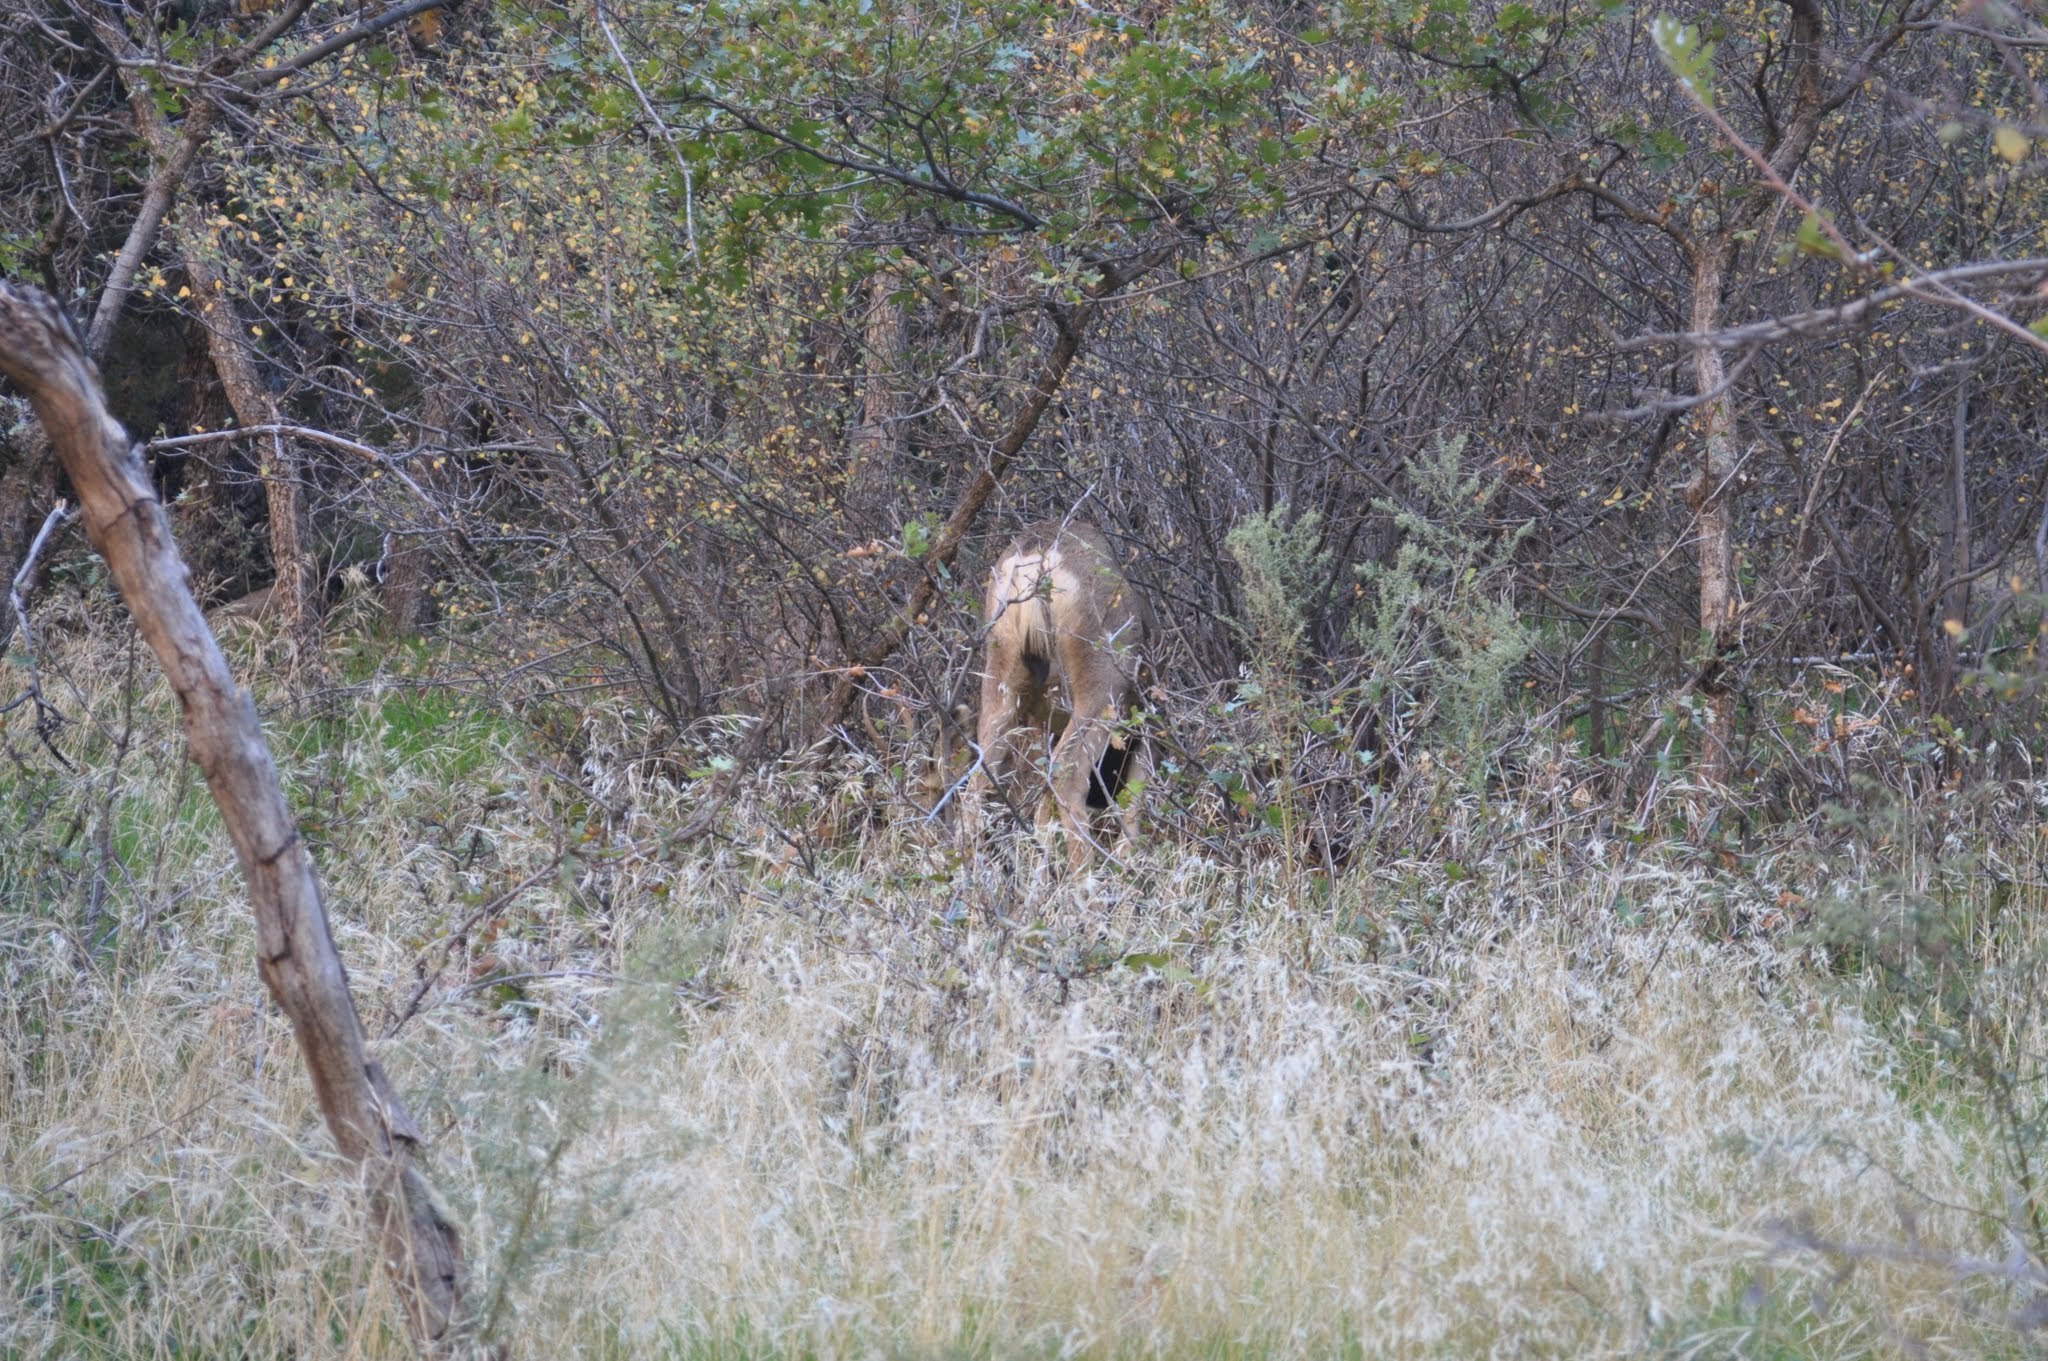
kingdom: Animalia
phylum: Chordata
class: Mammalia
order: Artiodactyla
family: Cervidae
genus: Odocoileus
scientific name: Odocoileus hemionus
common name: Mule deer
